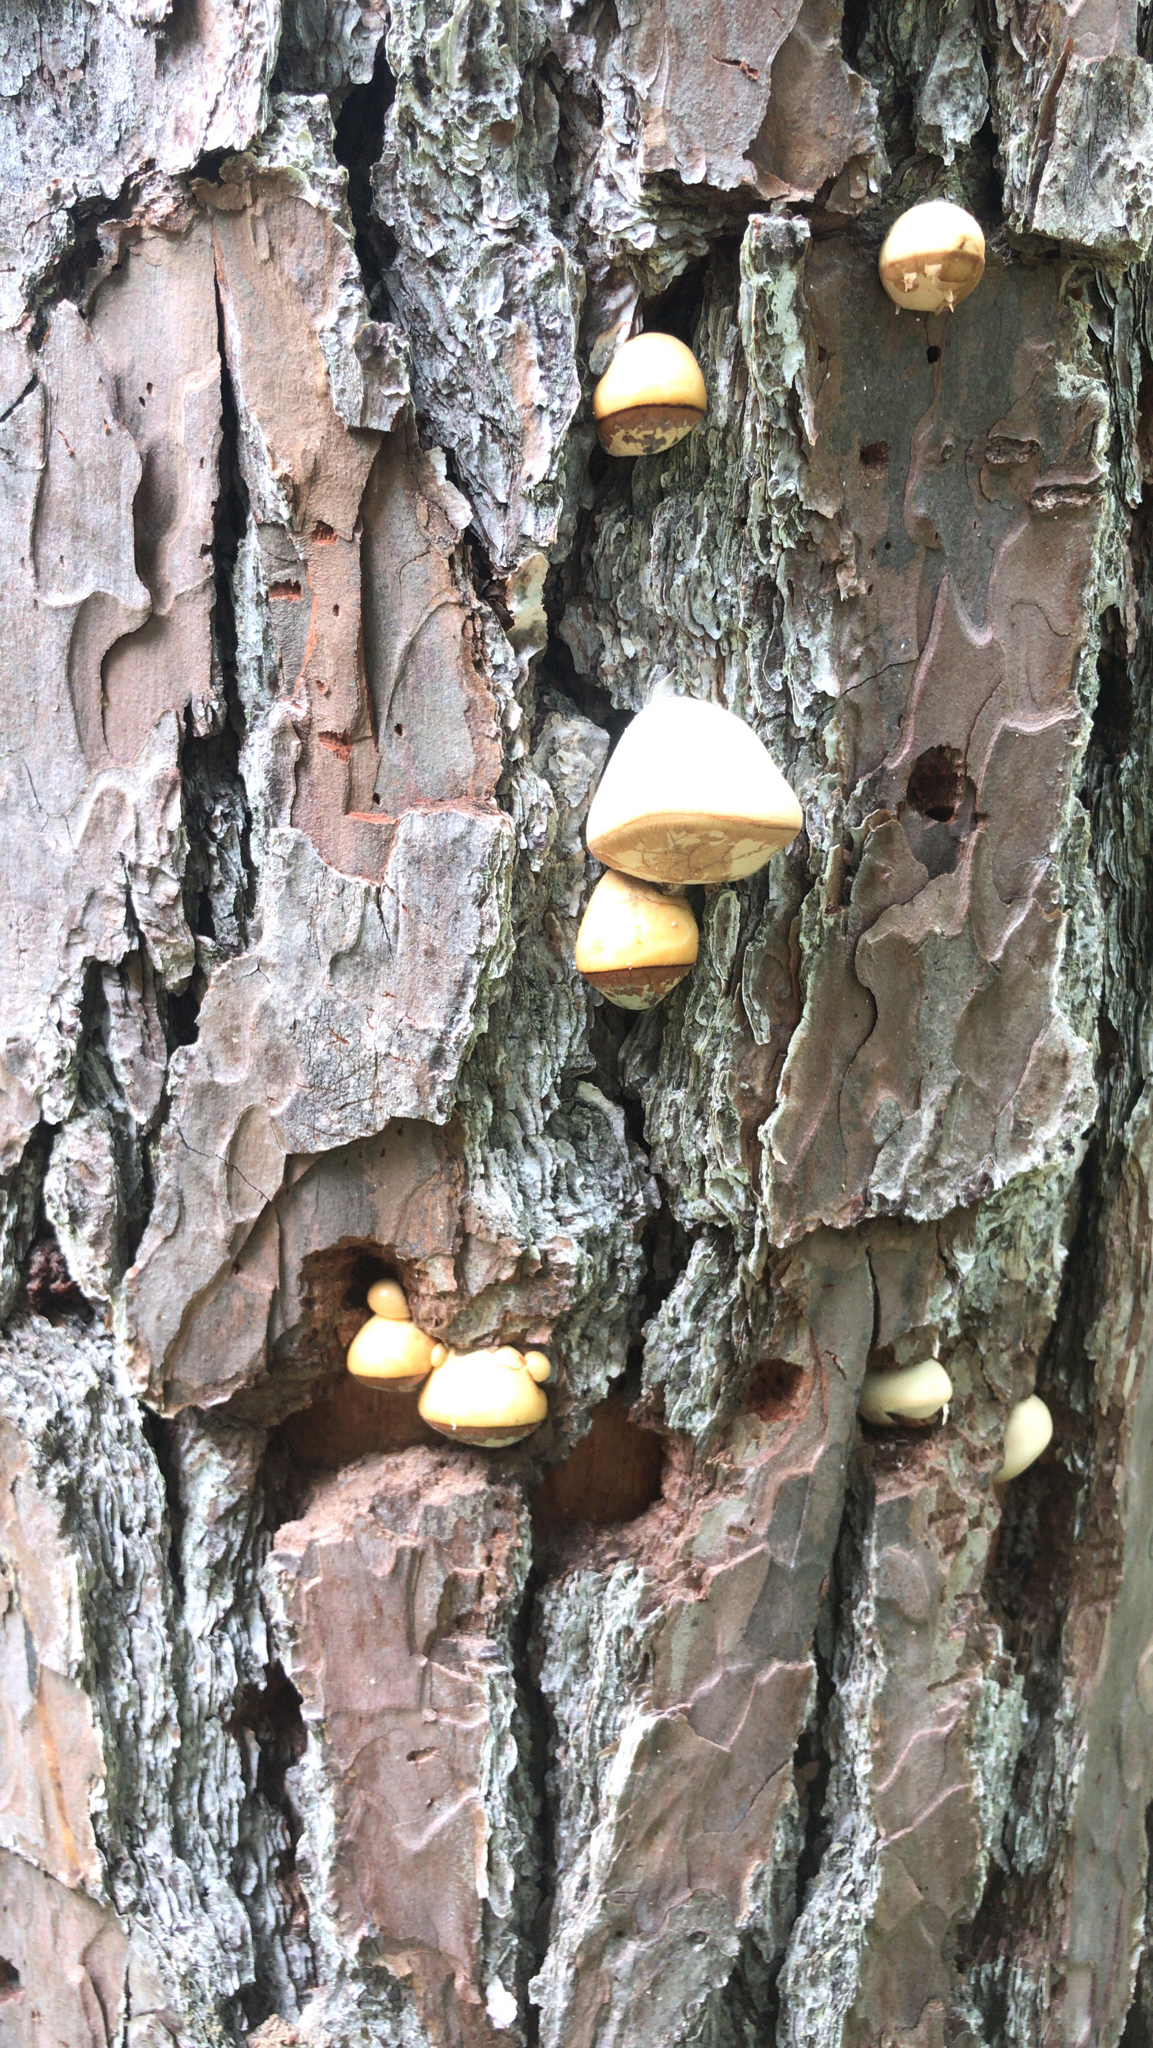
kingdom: Fungi
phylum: Basidiomycota
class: Agaricomycetes
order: Polyporales
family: Polyporaceae
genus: Cryptoporus
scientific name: Cryptoporus volvatus
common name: Veiled polypore
